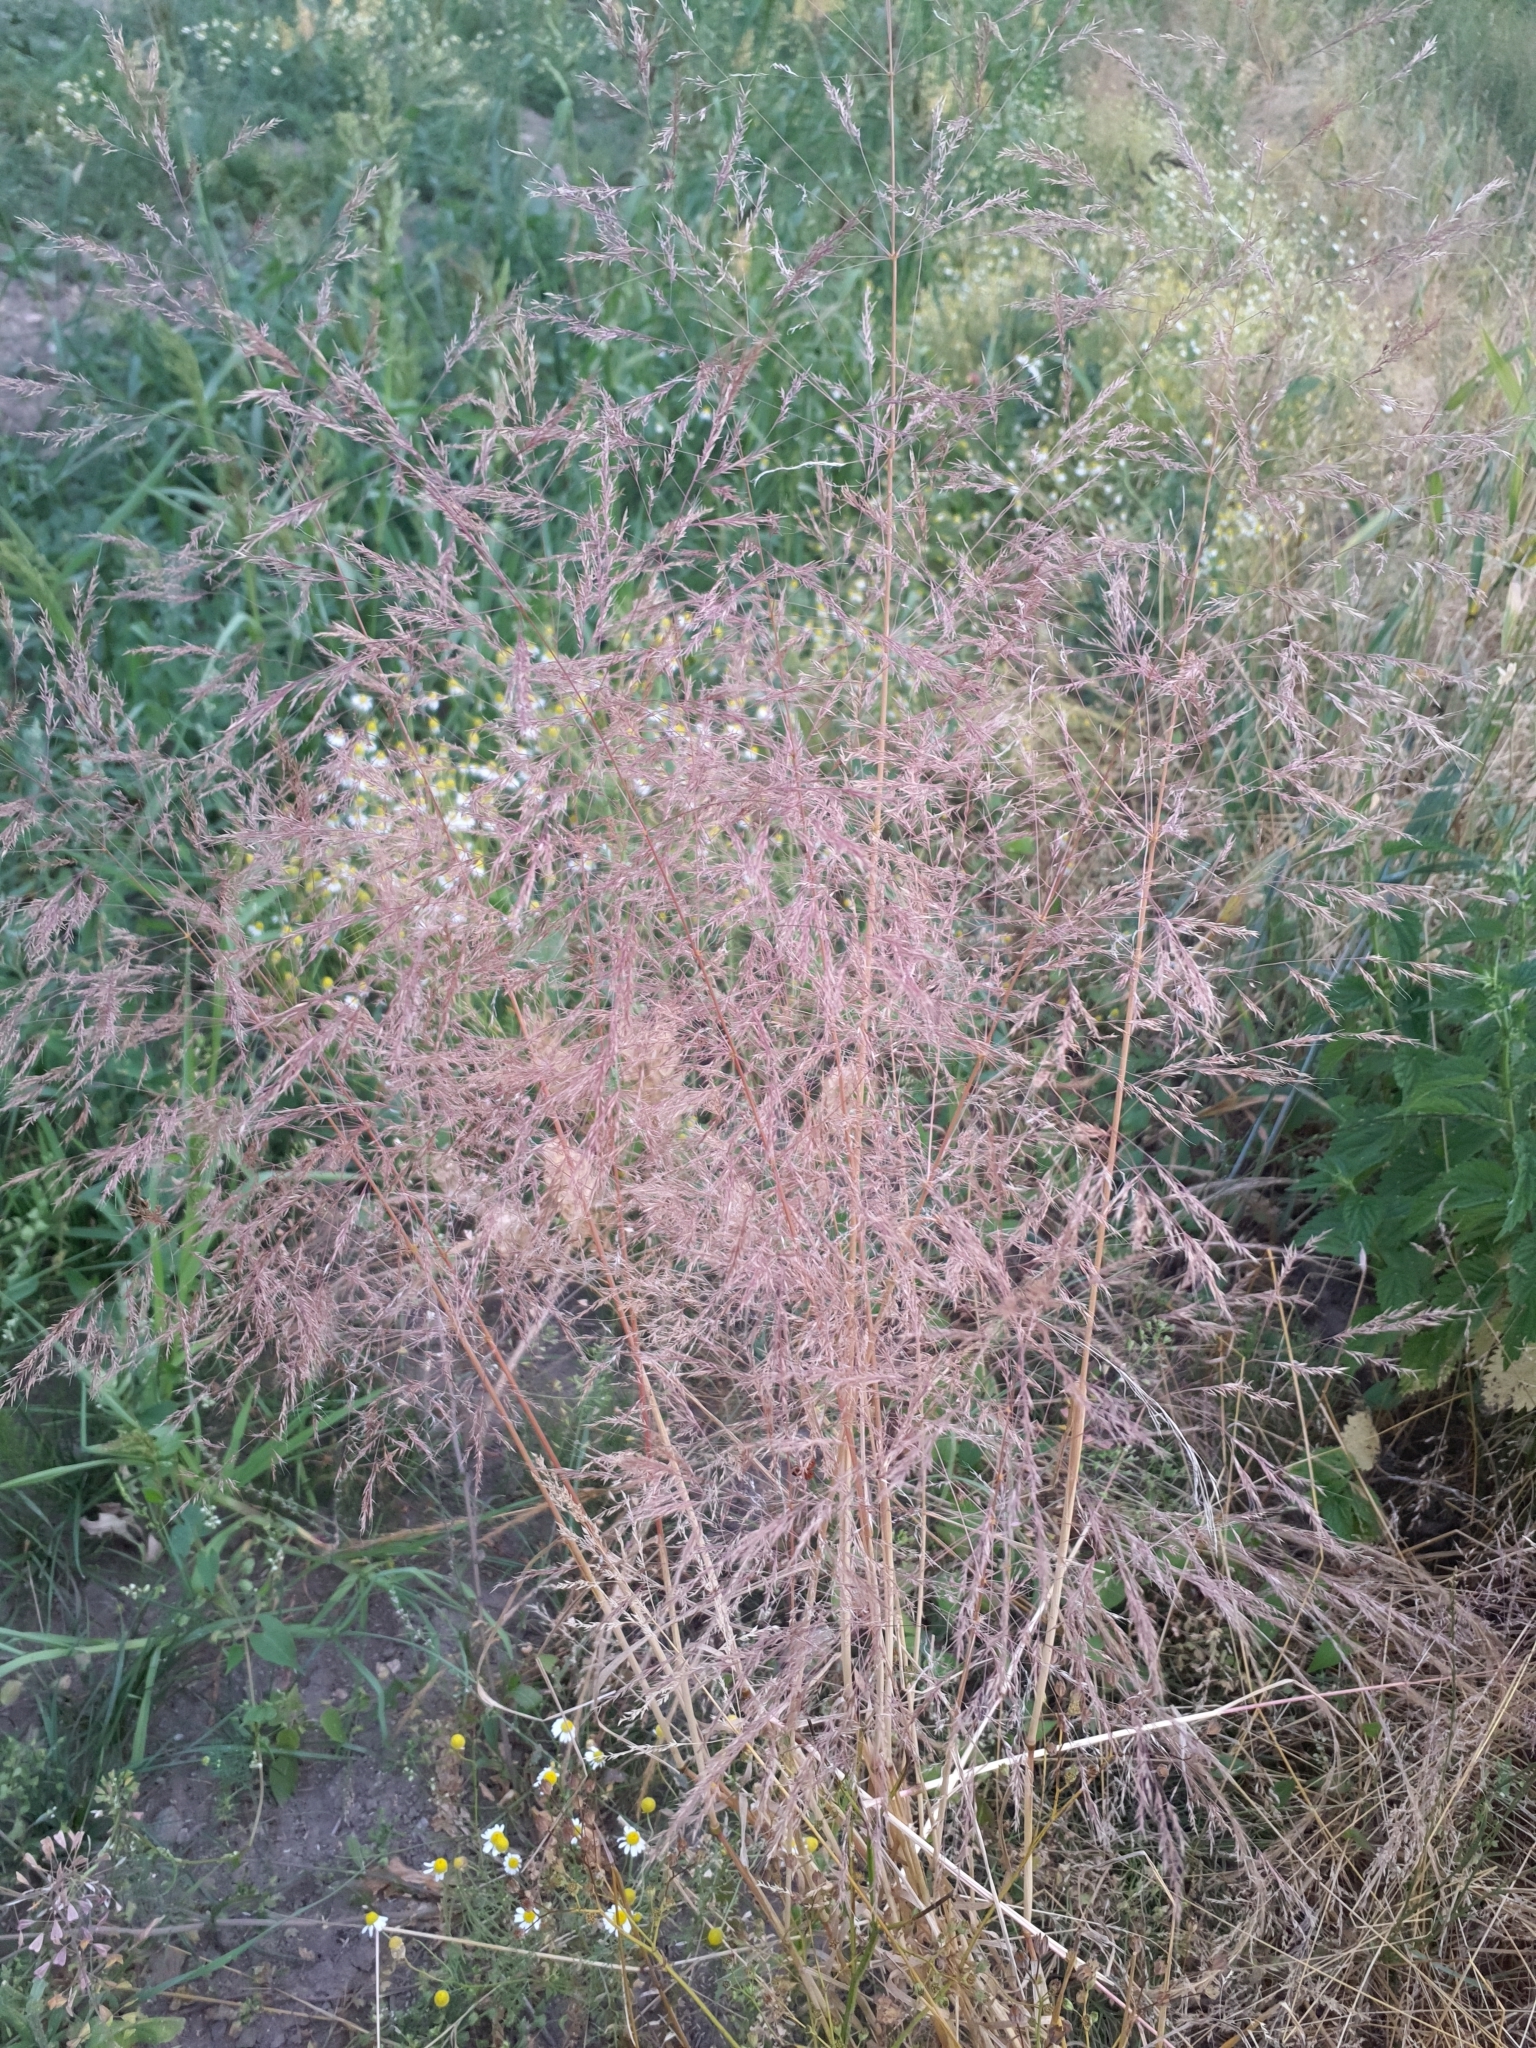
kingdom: Plantae
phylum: Tracheophyta
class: Liliopsida
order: Poales
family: Poaceae
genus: Apera
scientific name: Apera spica-venti
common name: Loose silky-bent
